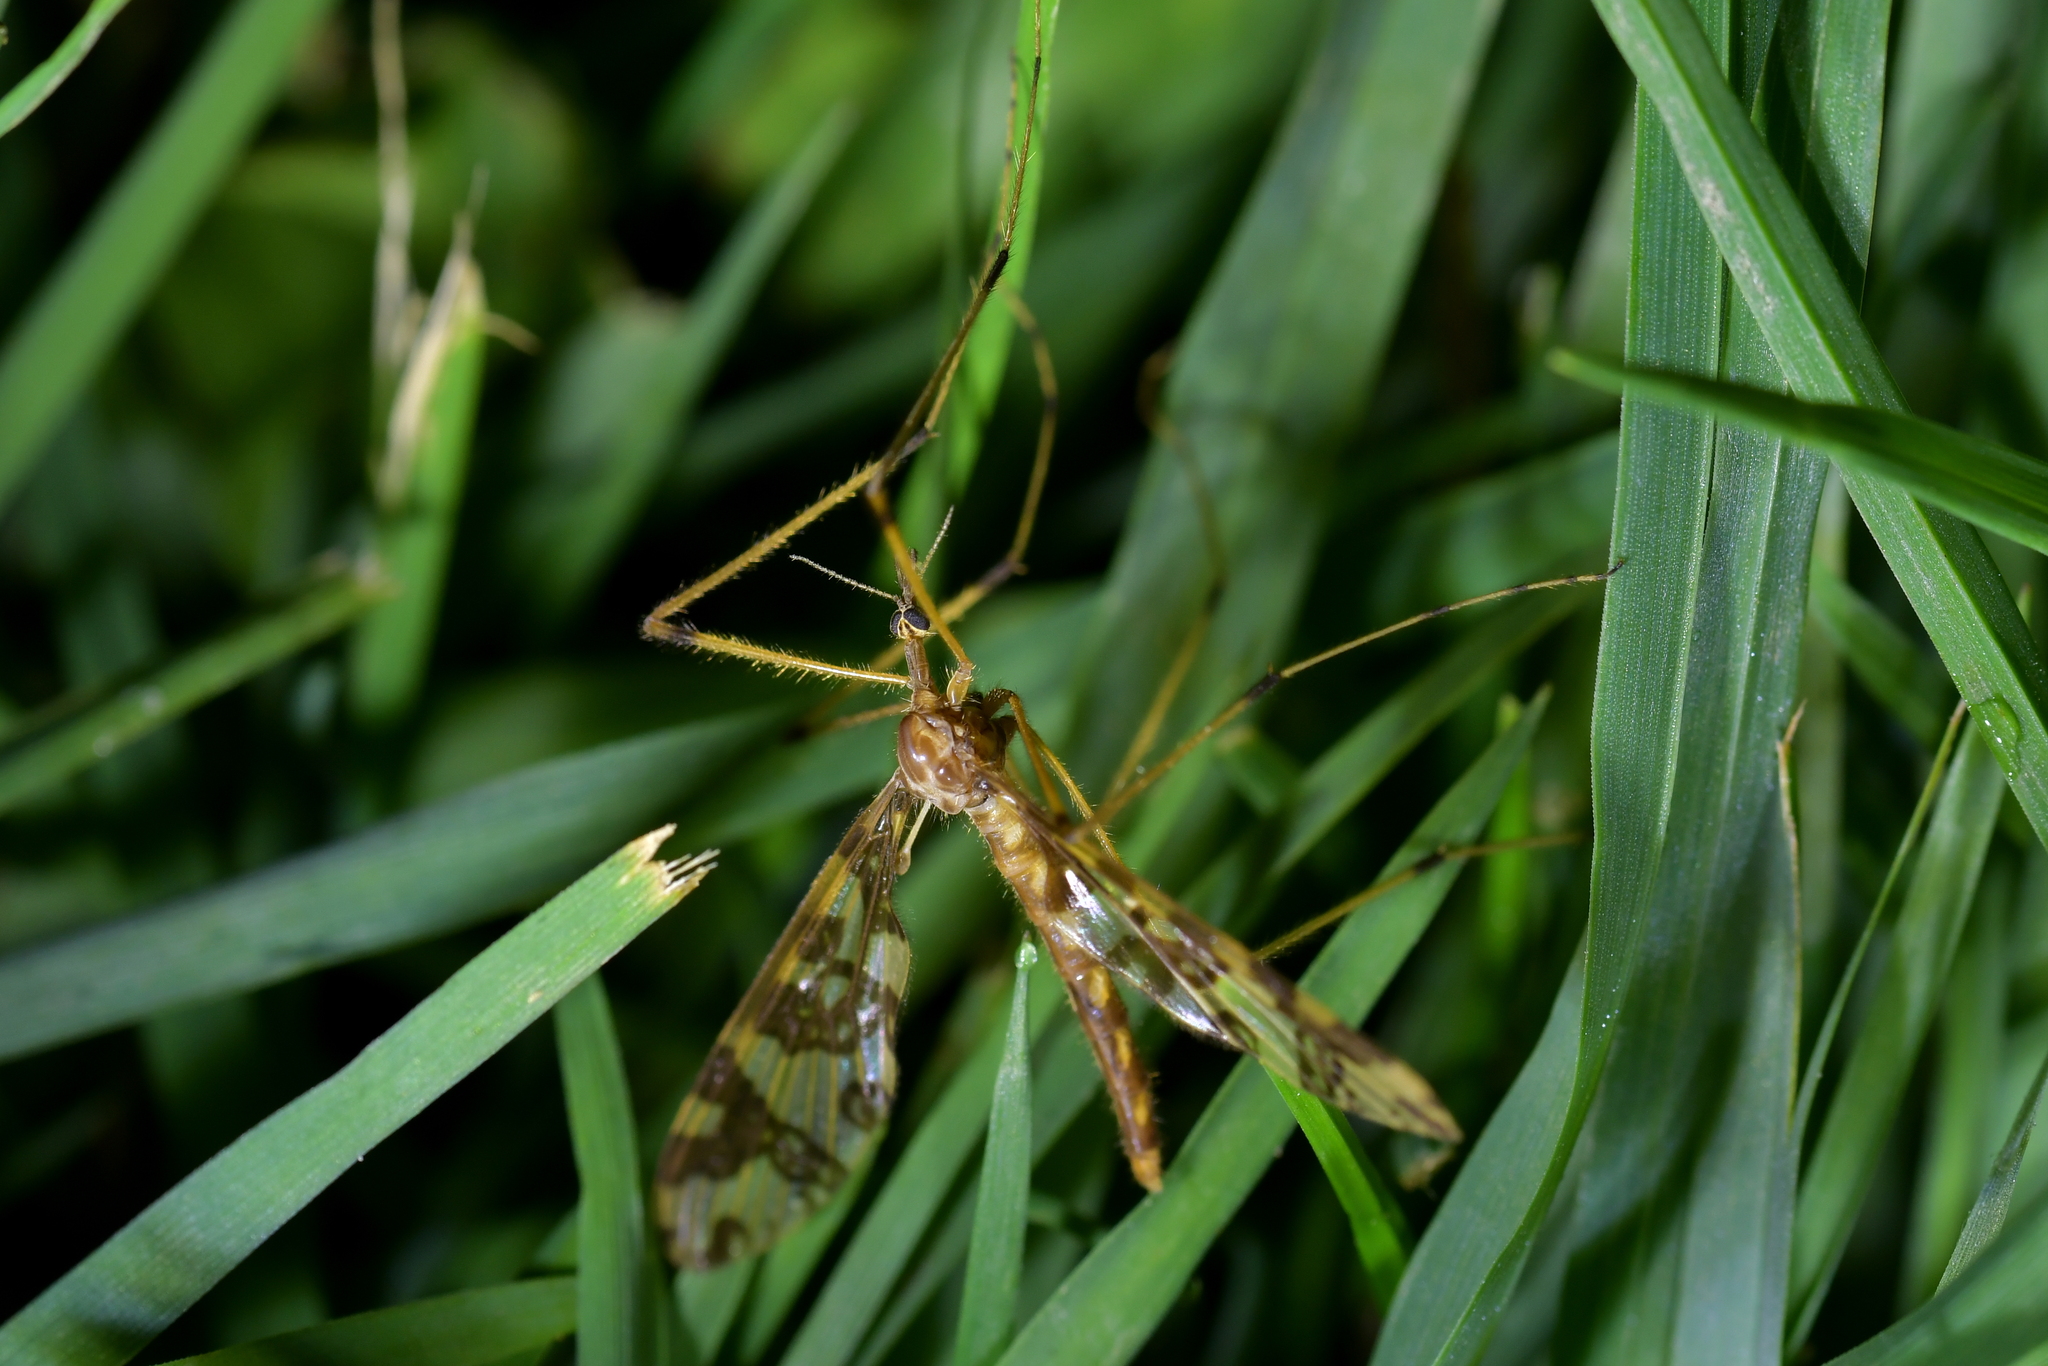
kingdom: Animalia
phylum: Arthropoda
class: Insecta
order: Diptera
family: Tanyderidae
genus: Tanyderus
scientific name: Tanyderus annuliferus
